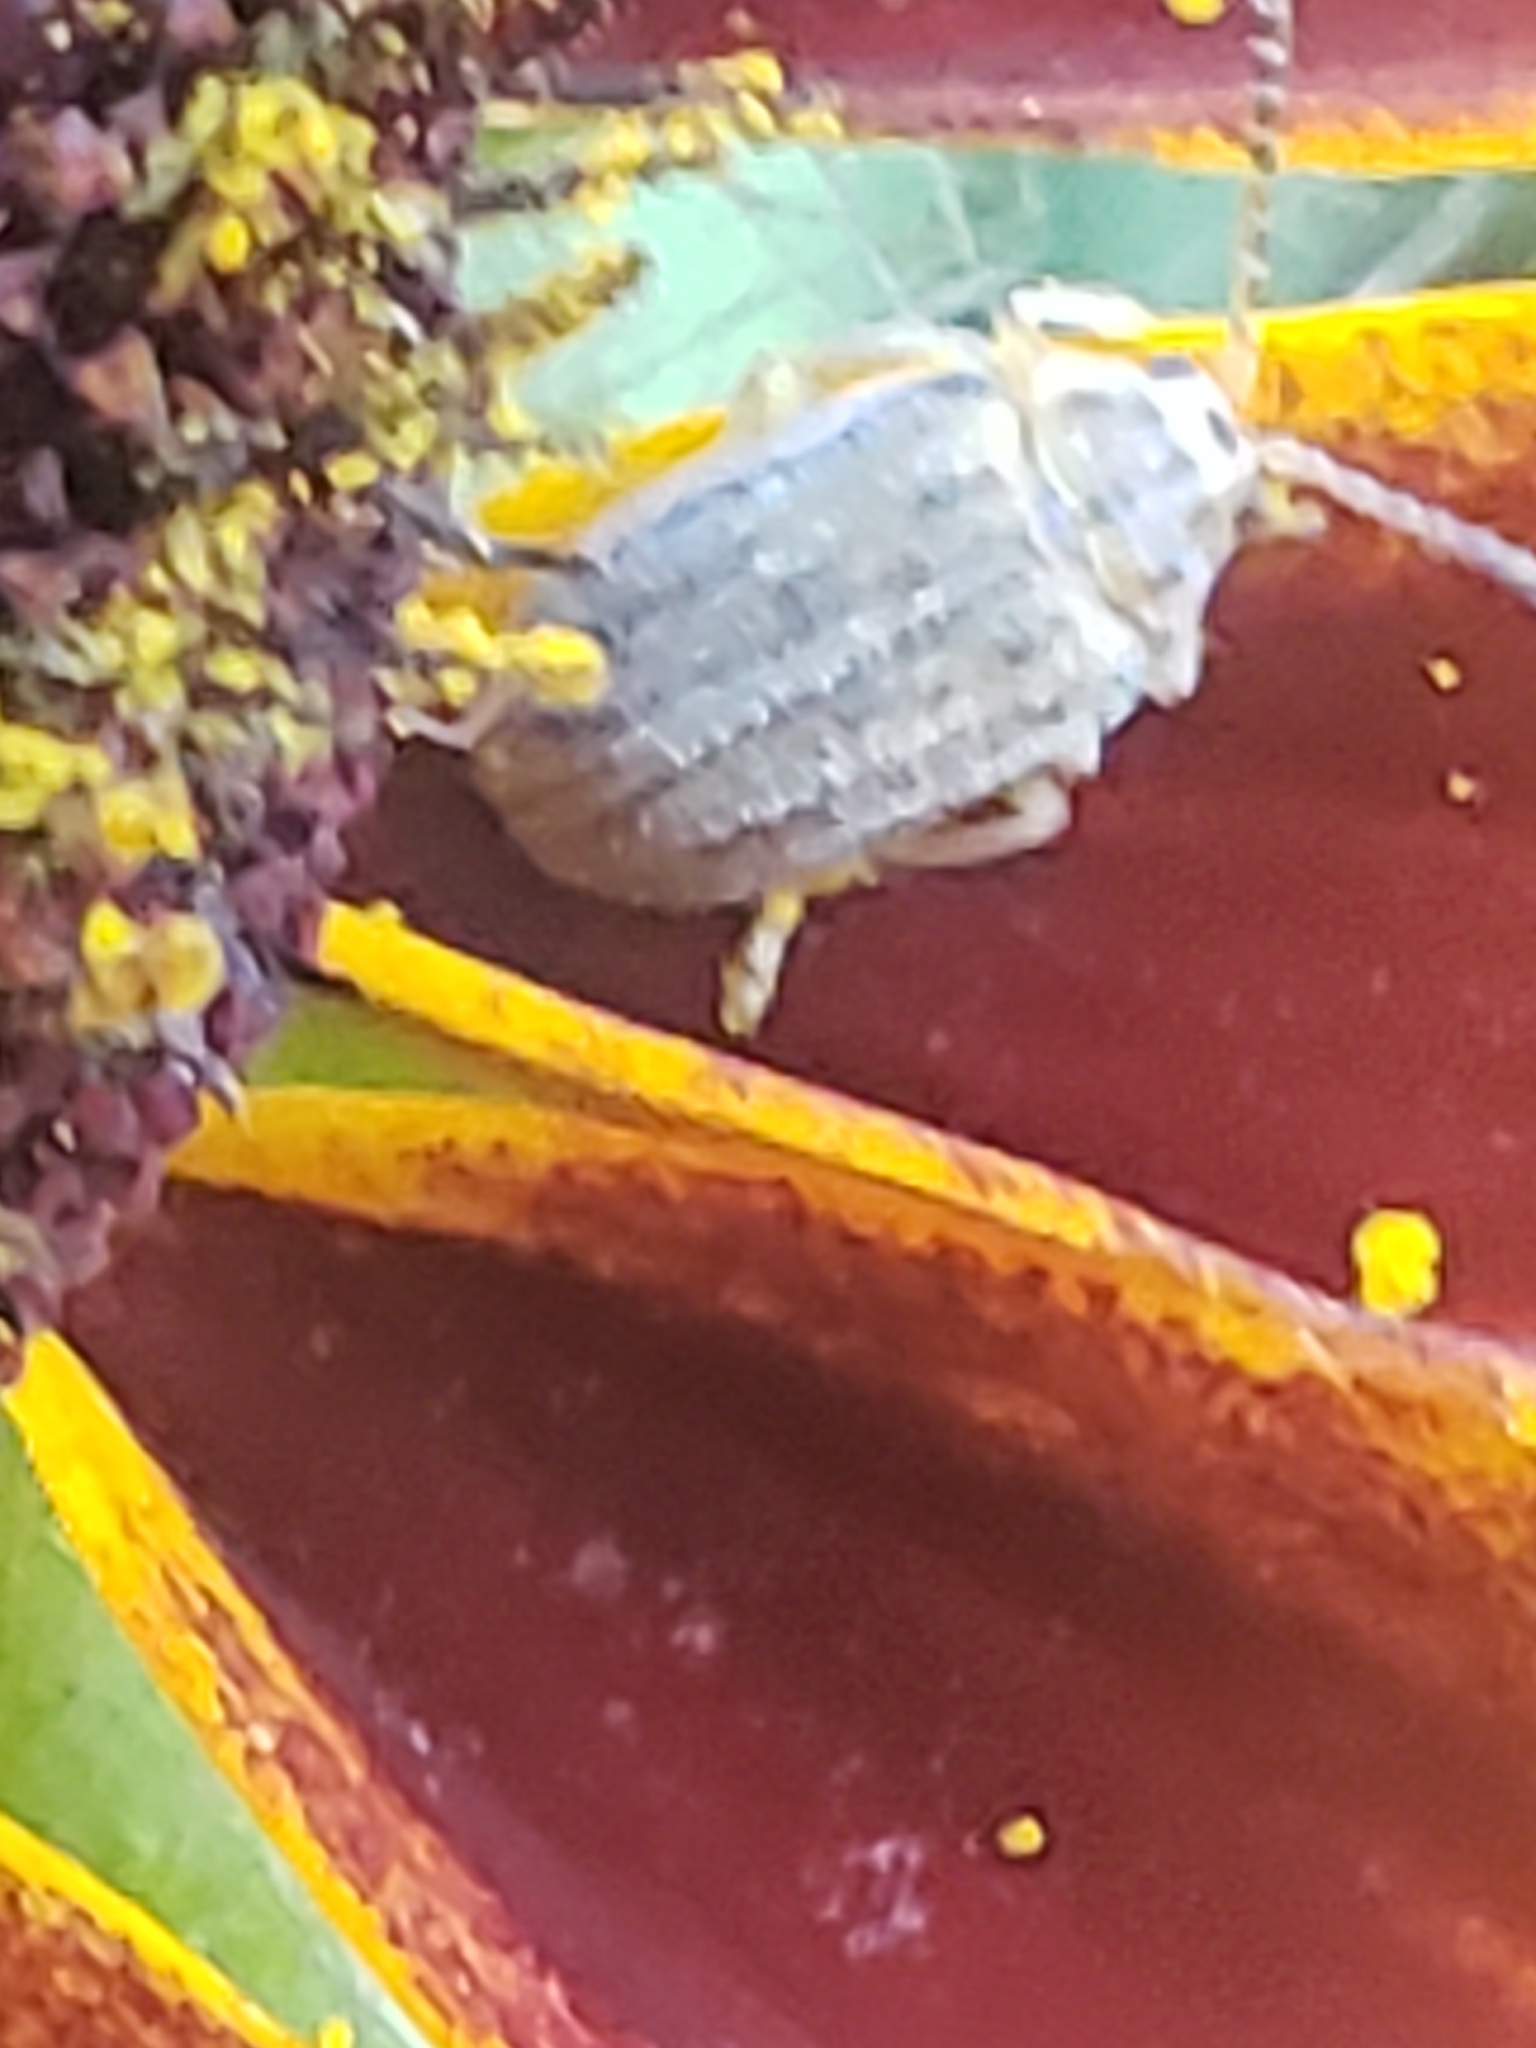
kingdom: Animalia
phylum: Arthropoda
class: Insecta
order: Coleoptera
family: Chrysomelidae
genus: Ophraella
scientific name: Ophraella communa
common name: Ragweed leaf beetle
